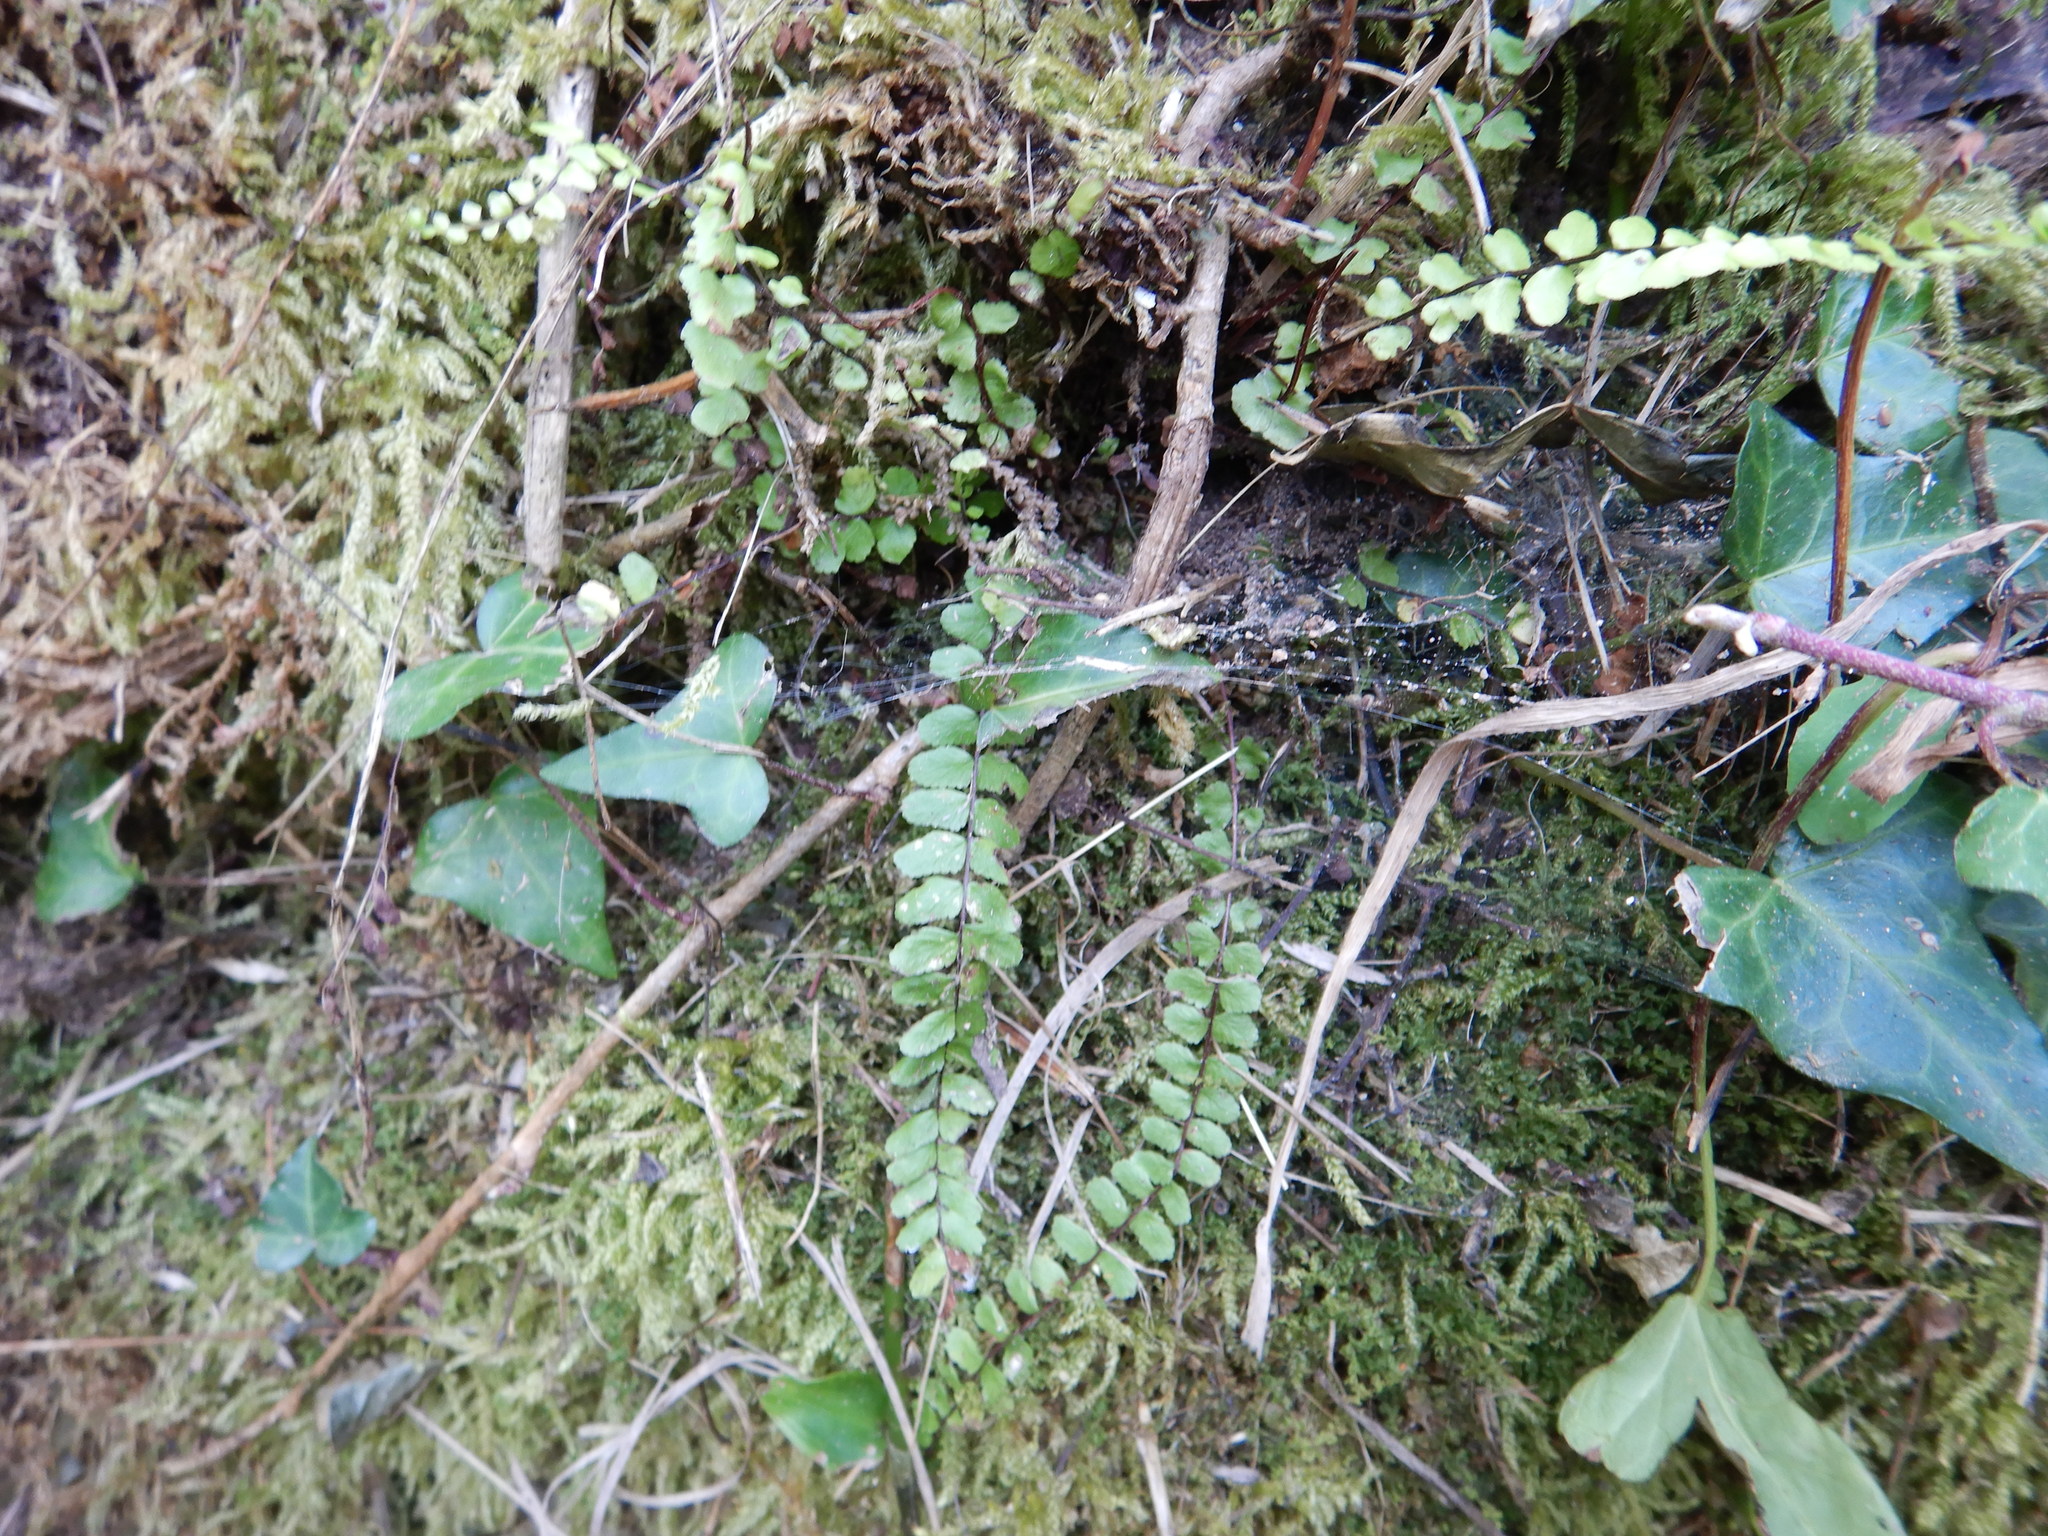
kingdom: Plantae
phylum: Tracheophyta
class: Polypodiopsida
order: Polypodiales
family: Aspleniaceae
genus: Asplenium
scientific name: Asplenium trichomanes
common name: Maidenhair spleenwort
